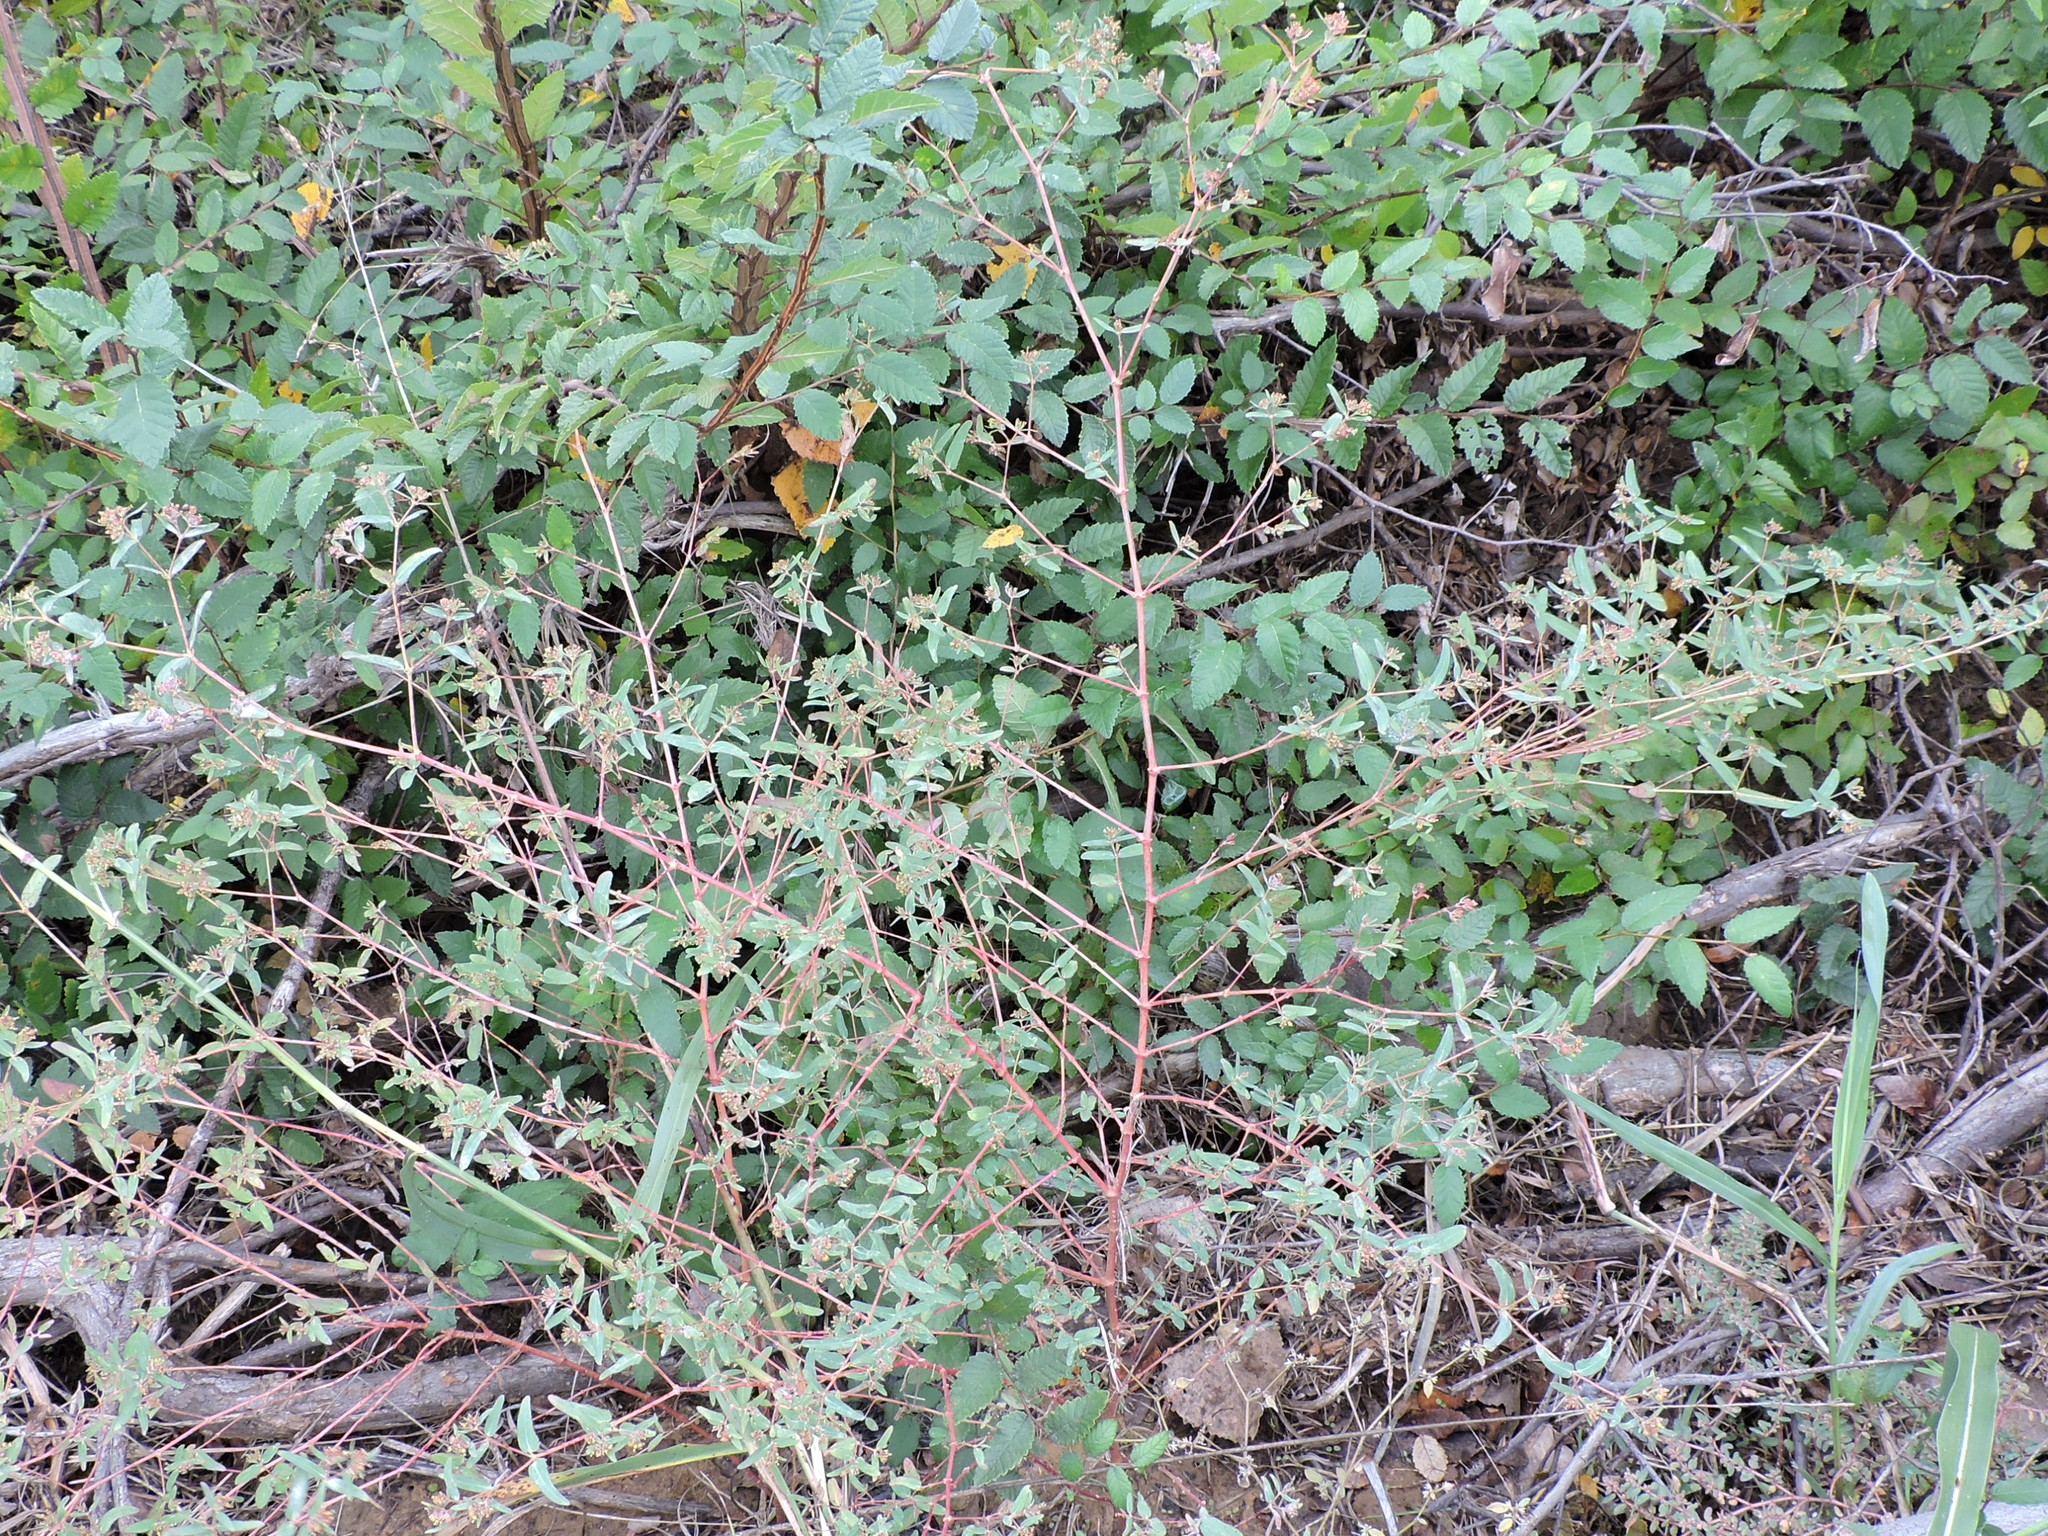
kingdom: Plantae
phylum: Tracheophyta
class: Magnoliopsida
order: Malpighiales
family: Euphorbiaceae
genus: Euphorbia
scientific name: Euphorbia nutans
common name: Eyebane
